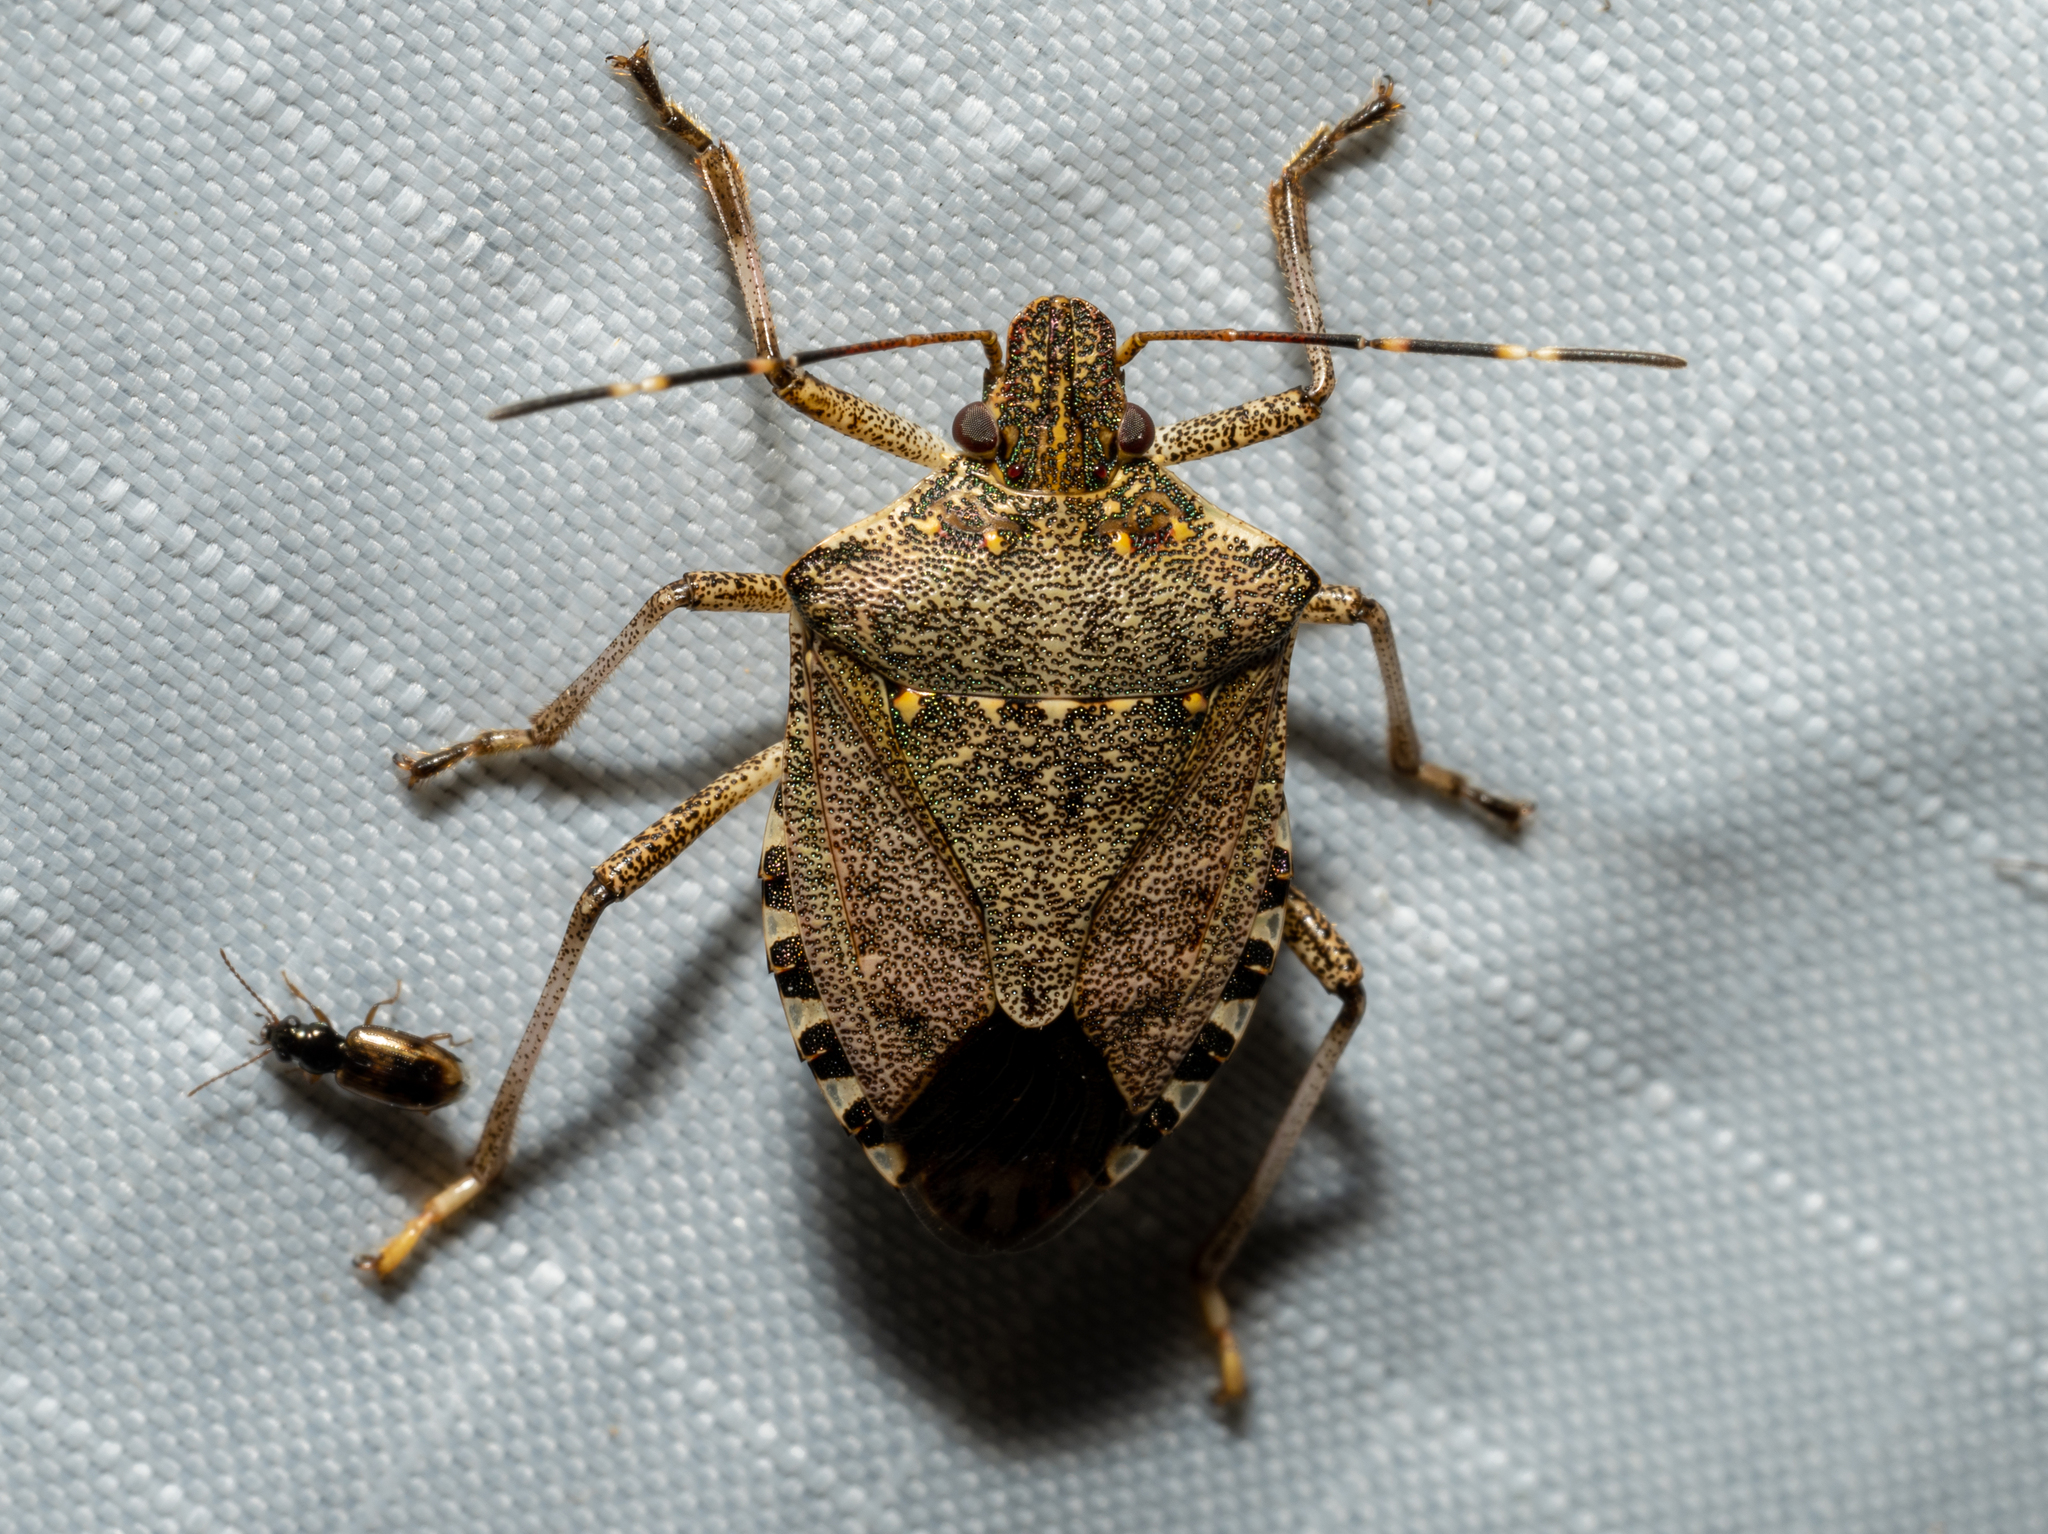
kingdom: Animalia
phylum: Arthropoda
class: Insecta
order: Hemiptera
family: Pentatomidae
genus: Halyomorpha
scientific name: Halyomorpha halys
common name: Brown marmorated stink bug
